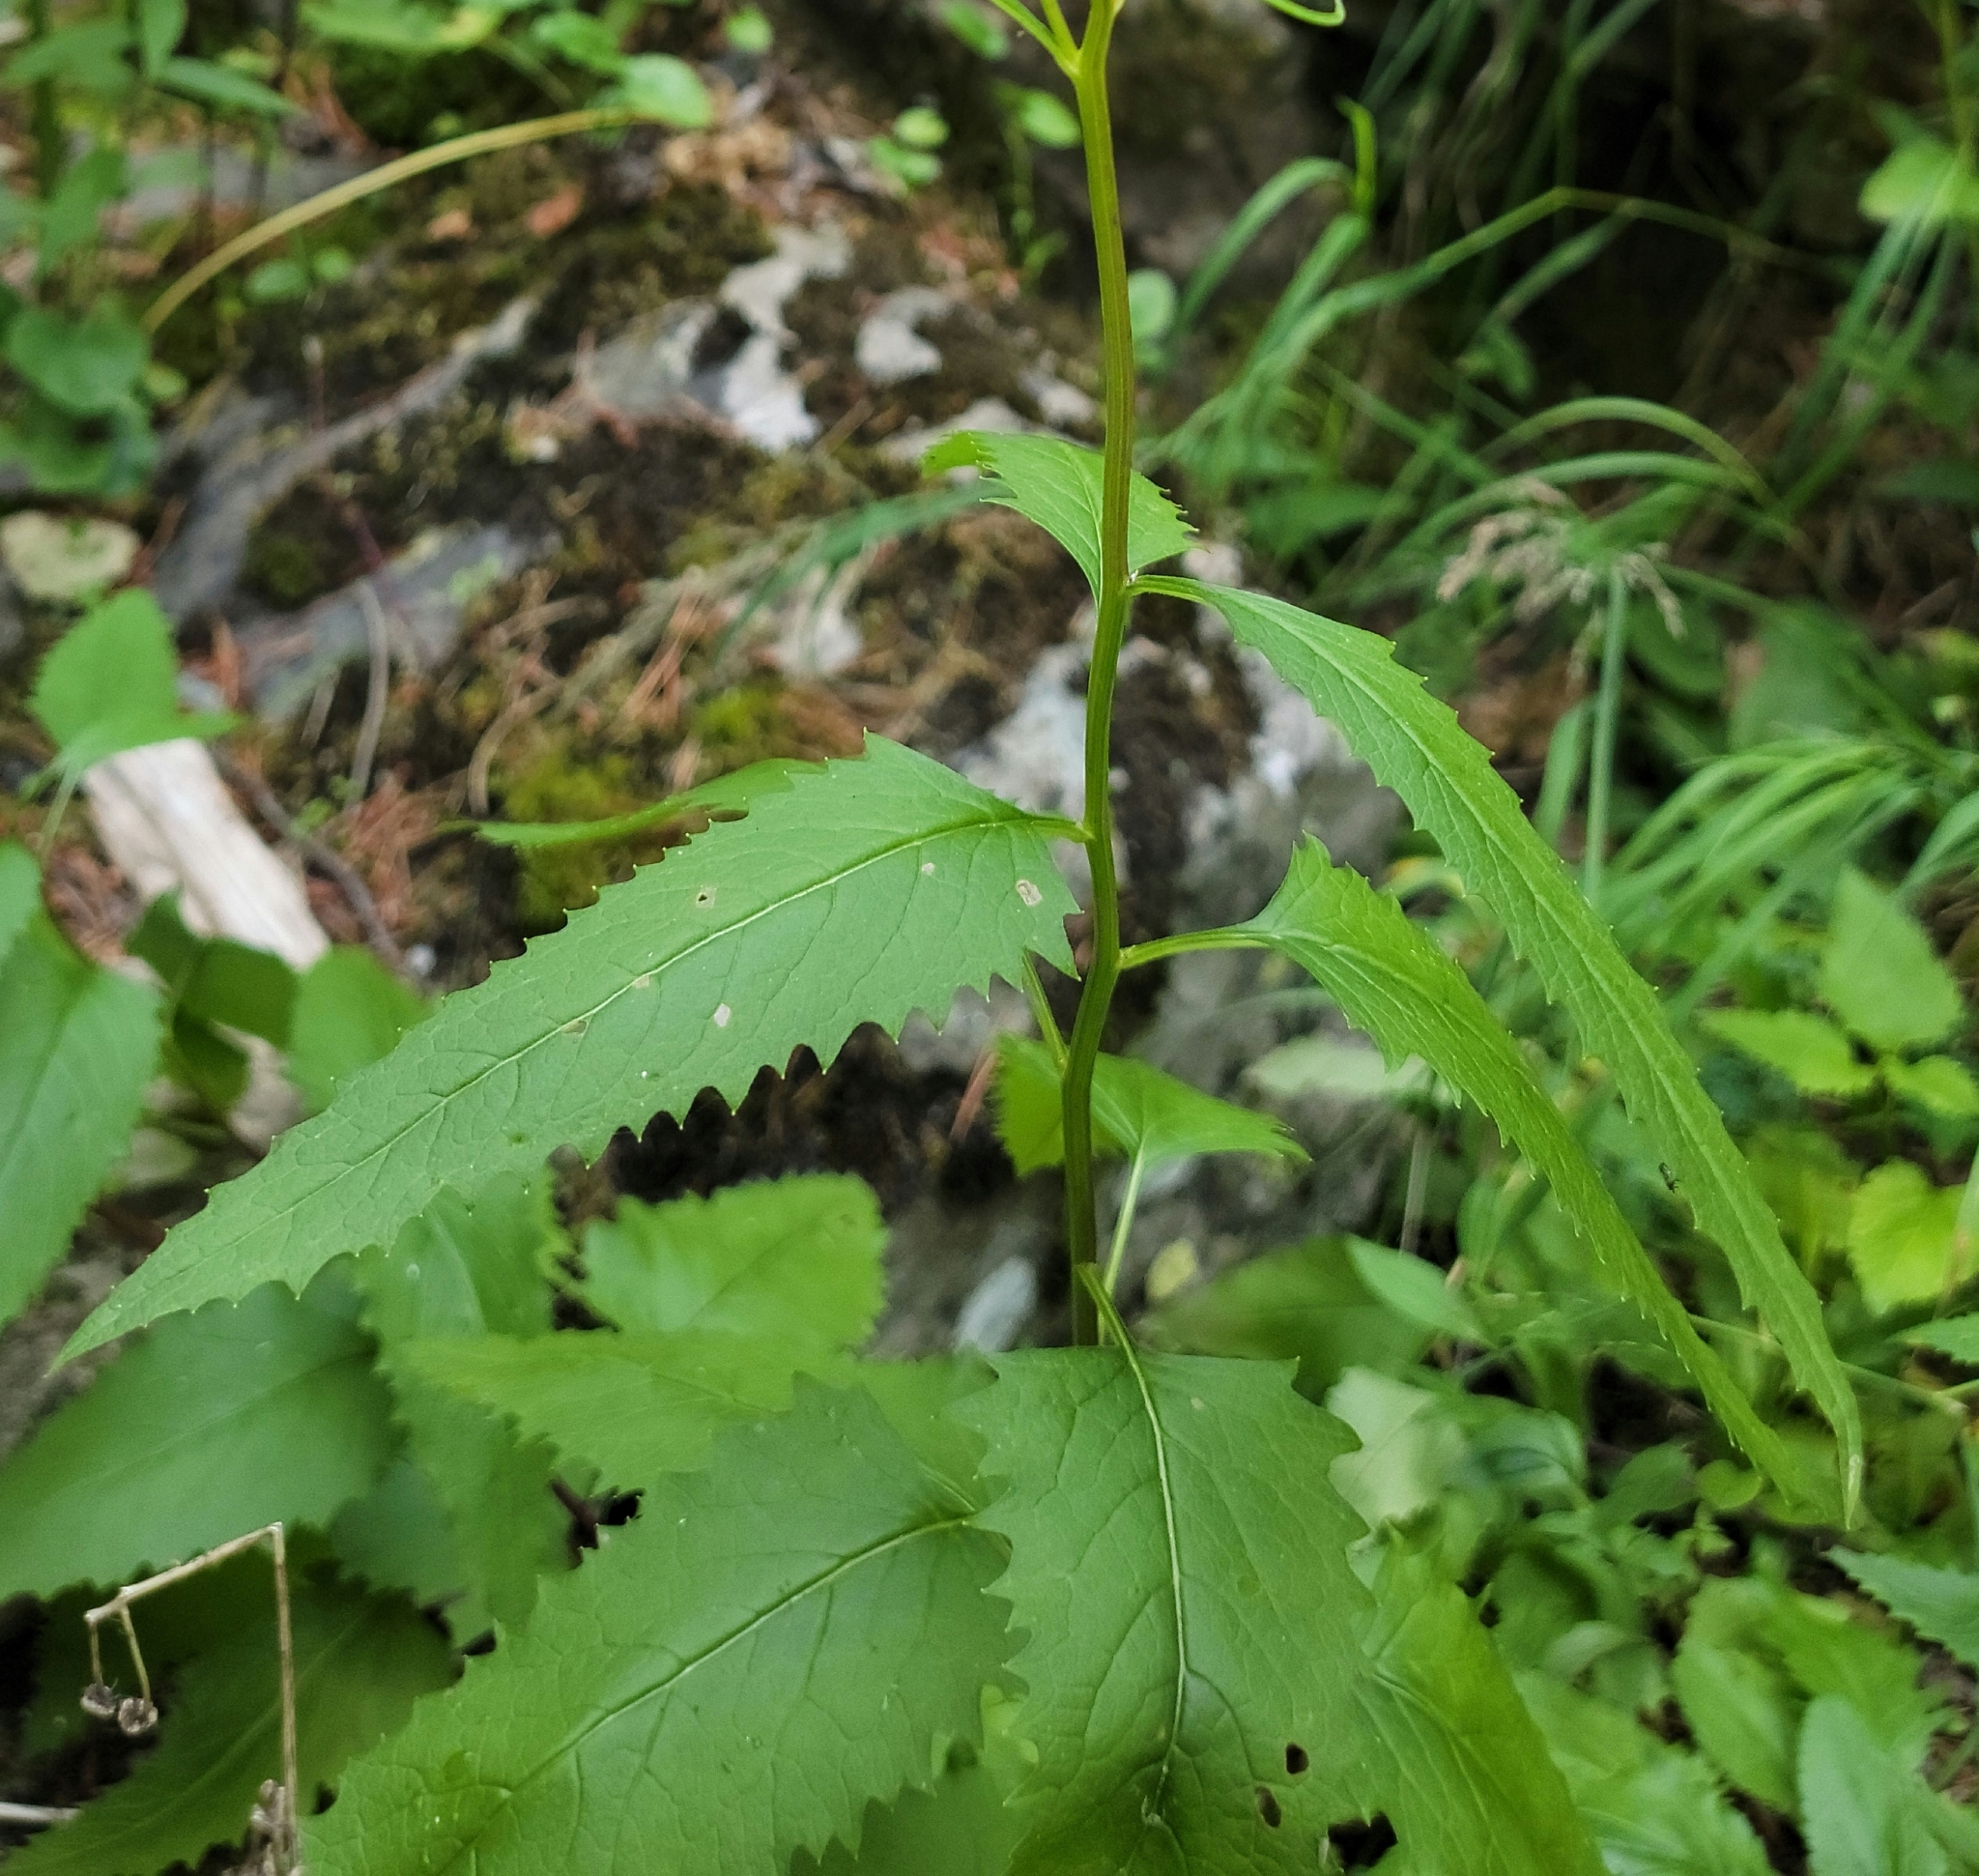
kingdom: Plantae
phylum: Tracheophyta
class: Magnoliopsida
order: Asterales
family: Asteraceae
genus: Senecio
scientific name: Senecio triangularis
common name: Arrowleaf butterweed
